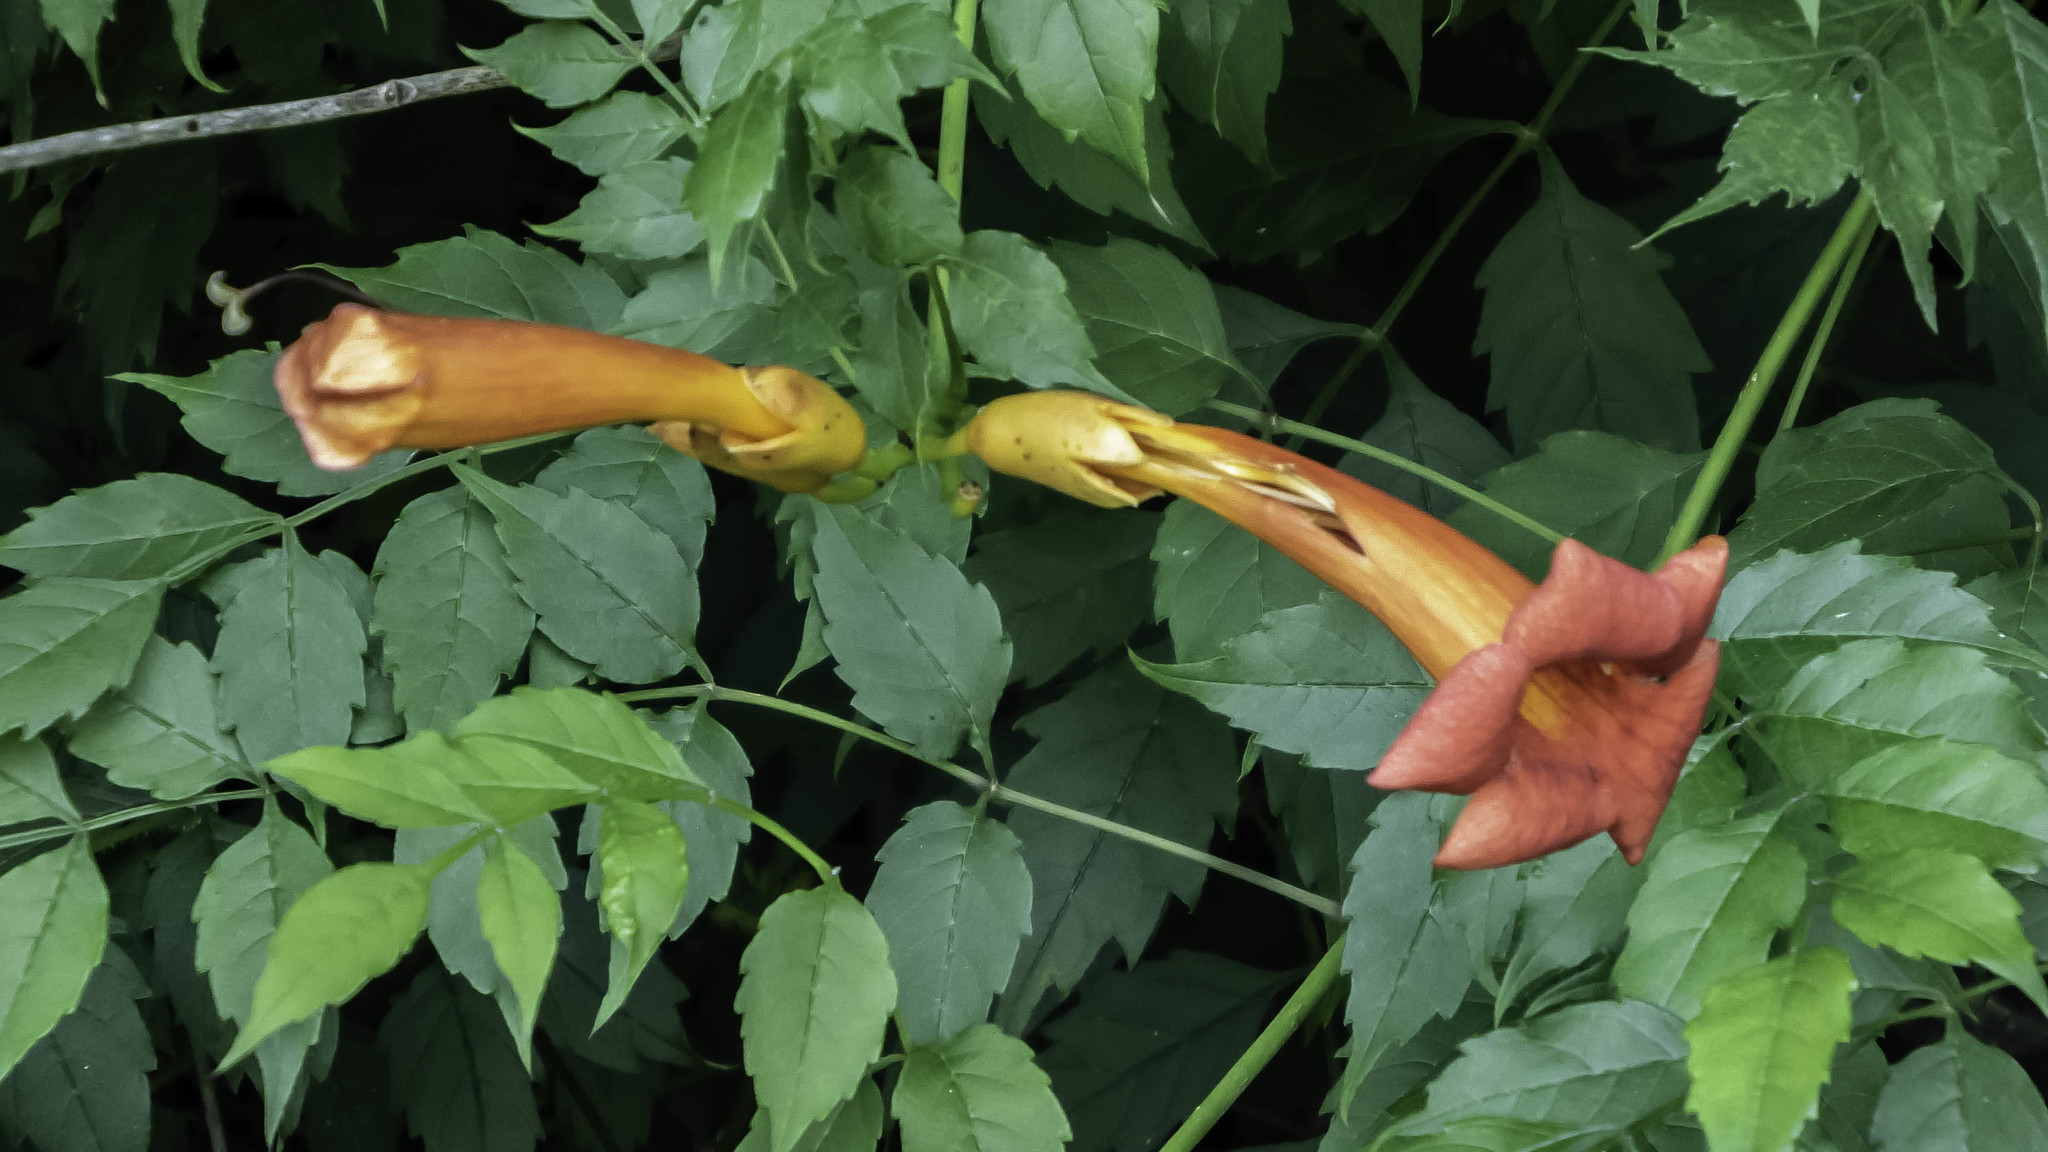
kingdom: Plantae
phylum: Tracheophyta
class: Magnoliopsida
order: Lamiales
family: Bignoniaceae
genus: Campsis
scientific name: Campsis radicans
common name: Trumpet-creeper
